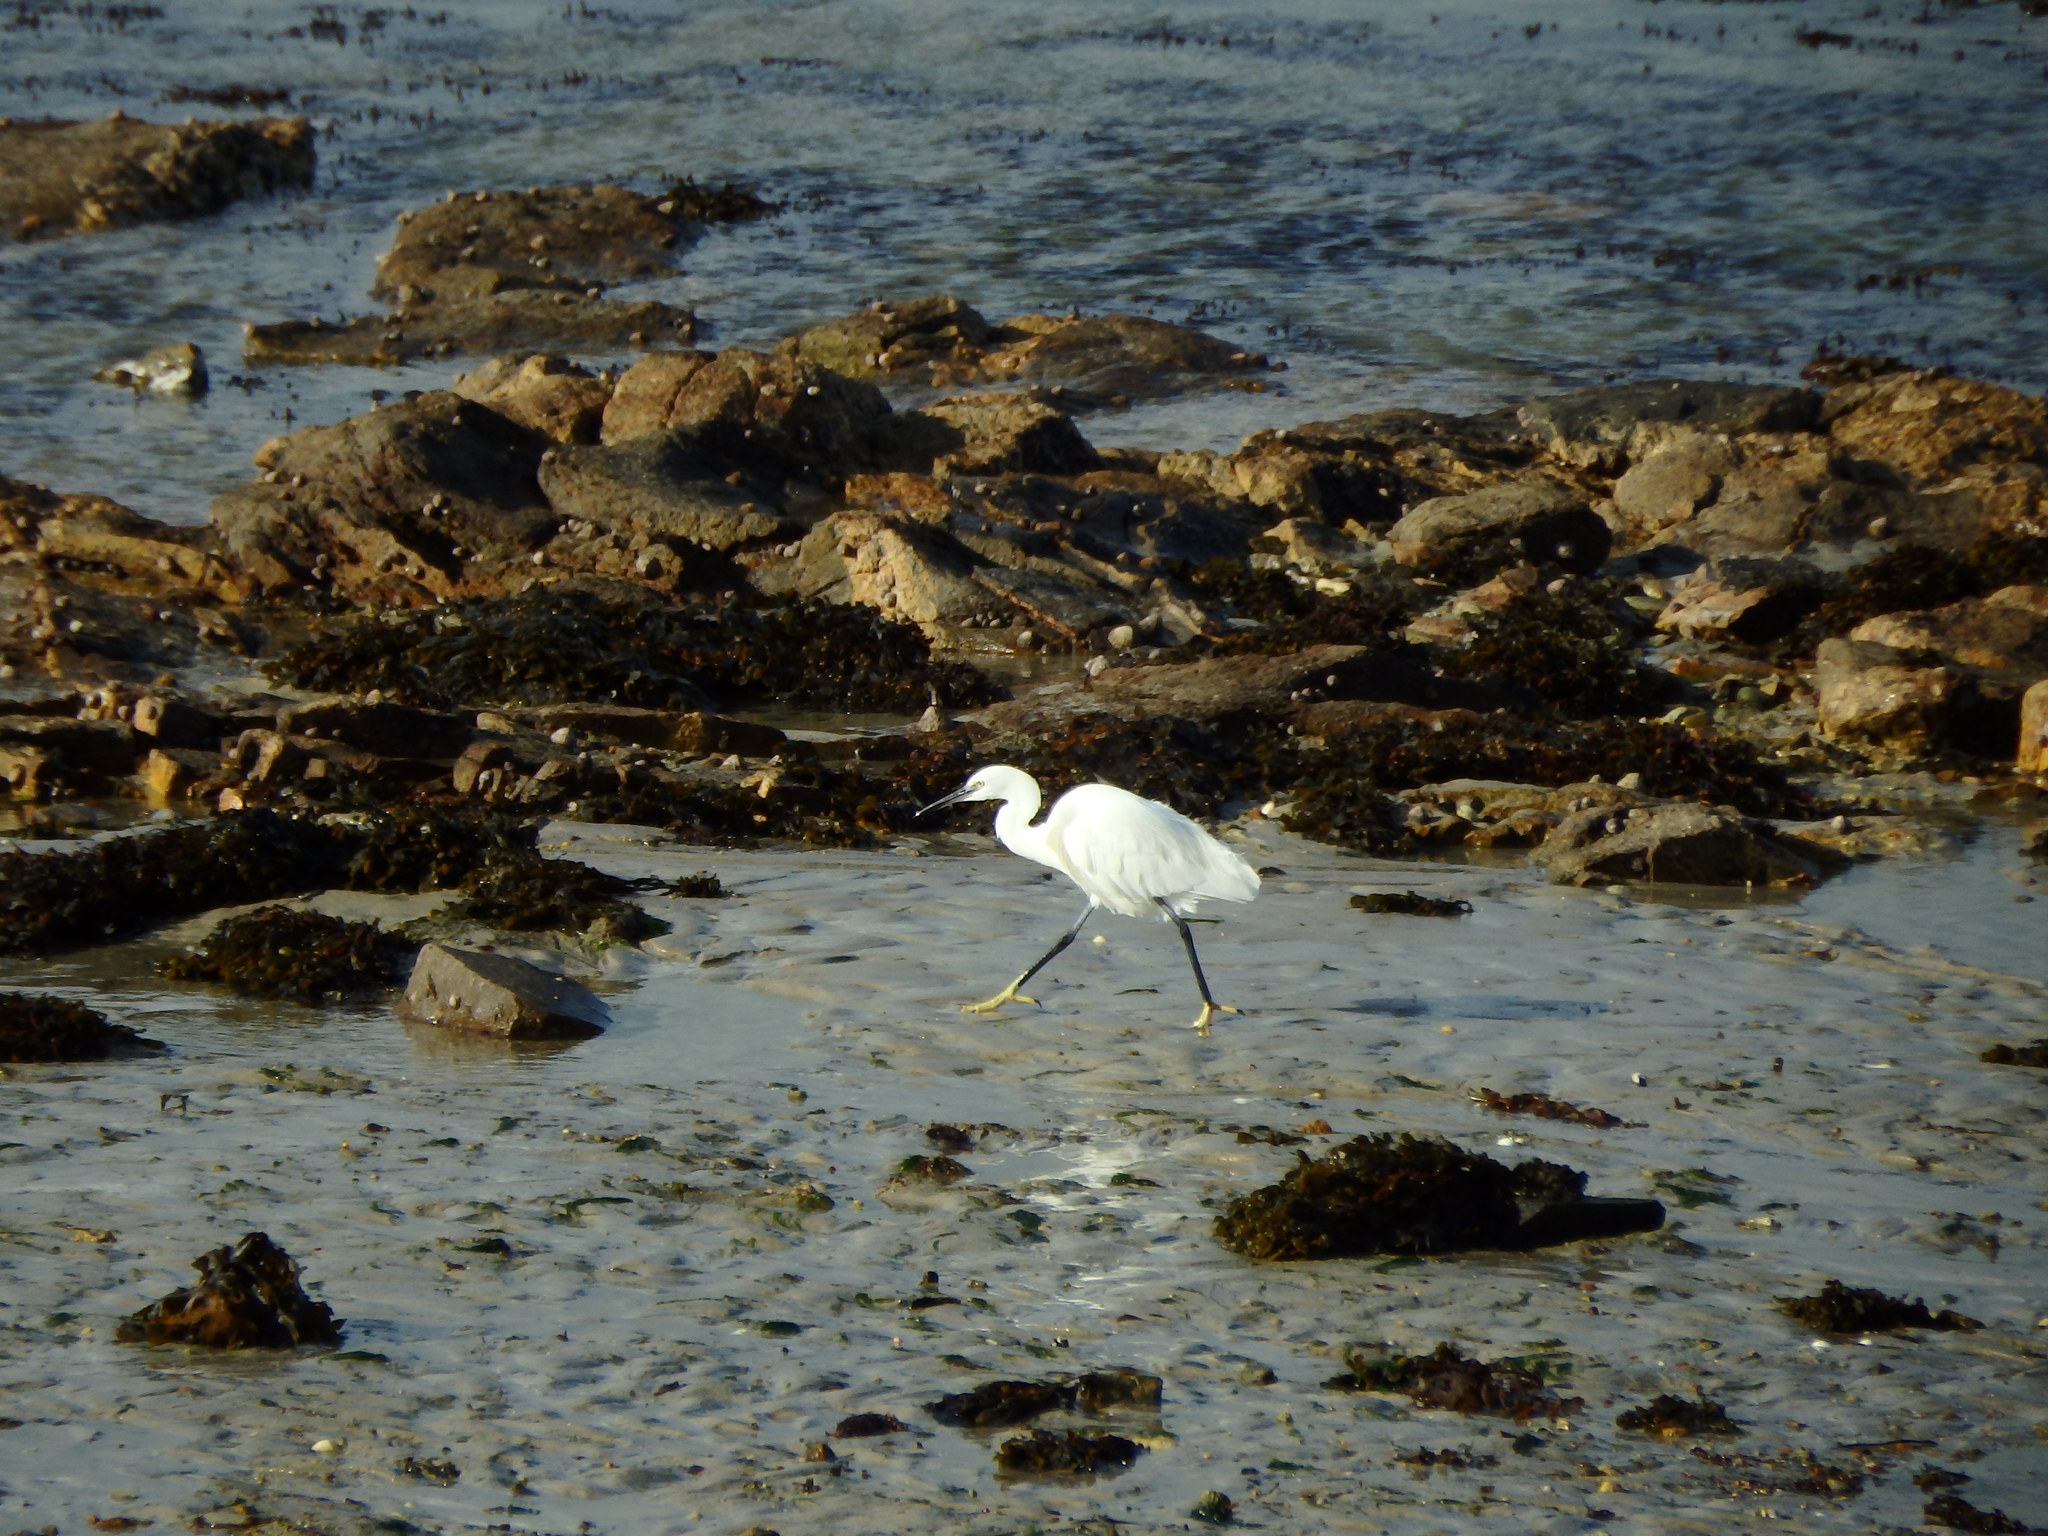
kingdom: Animalia
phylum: Chordata
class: Aves
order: Pelecaniformes
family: Ardeidae
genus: Egretta
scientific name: Egretta garzetta
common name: Little egret
